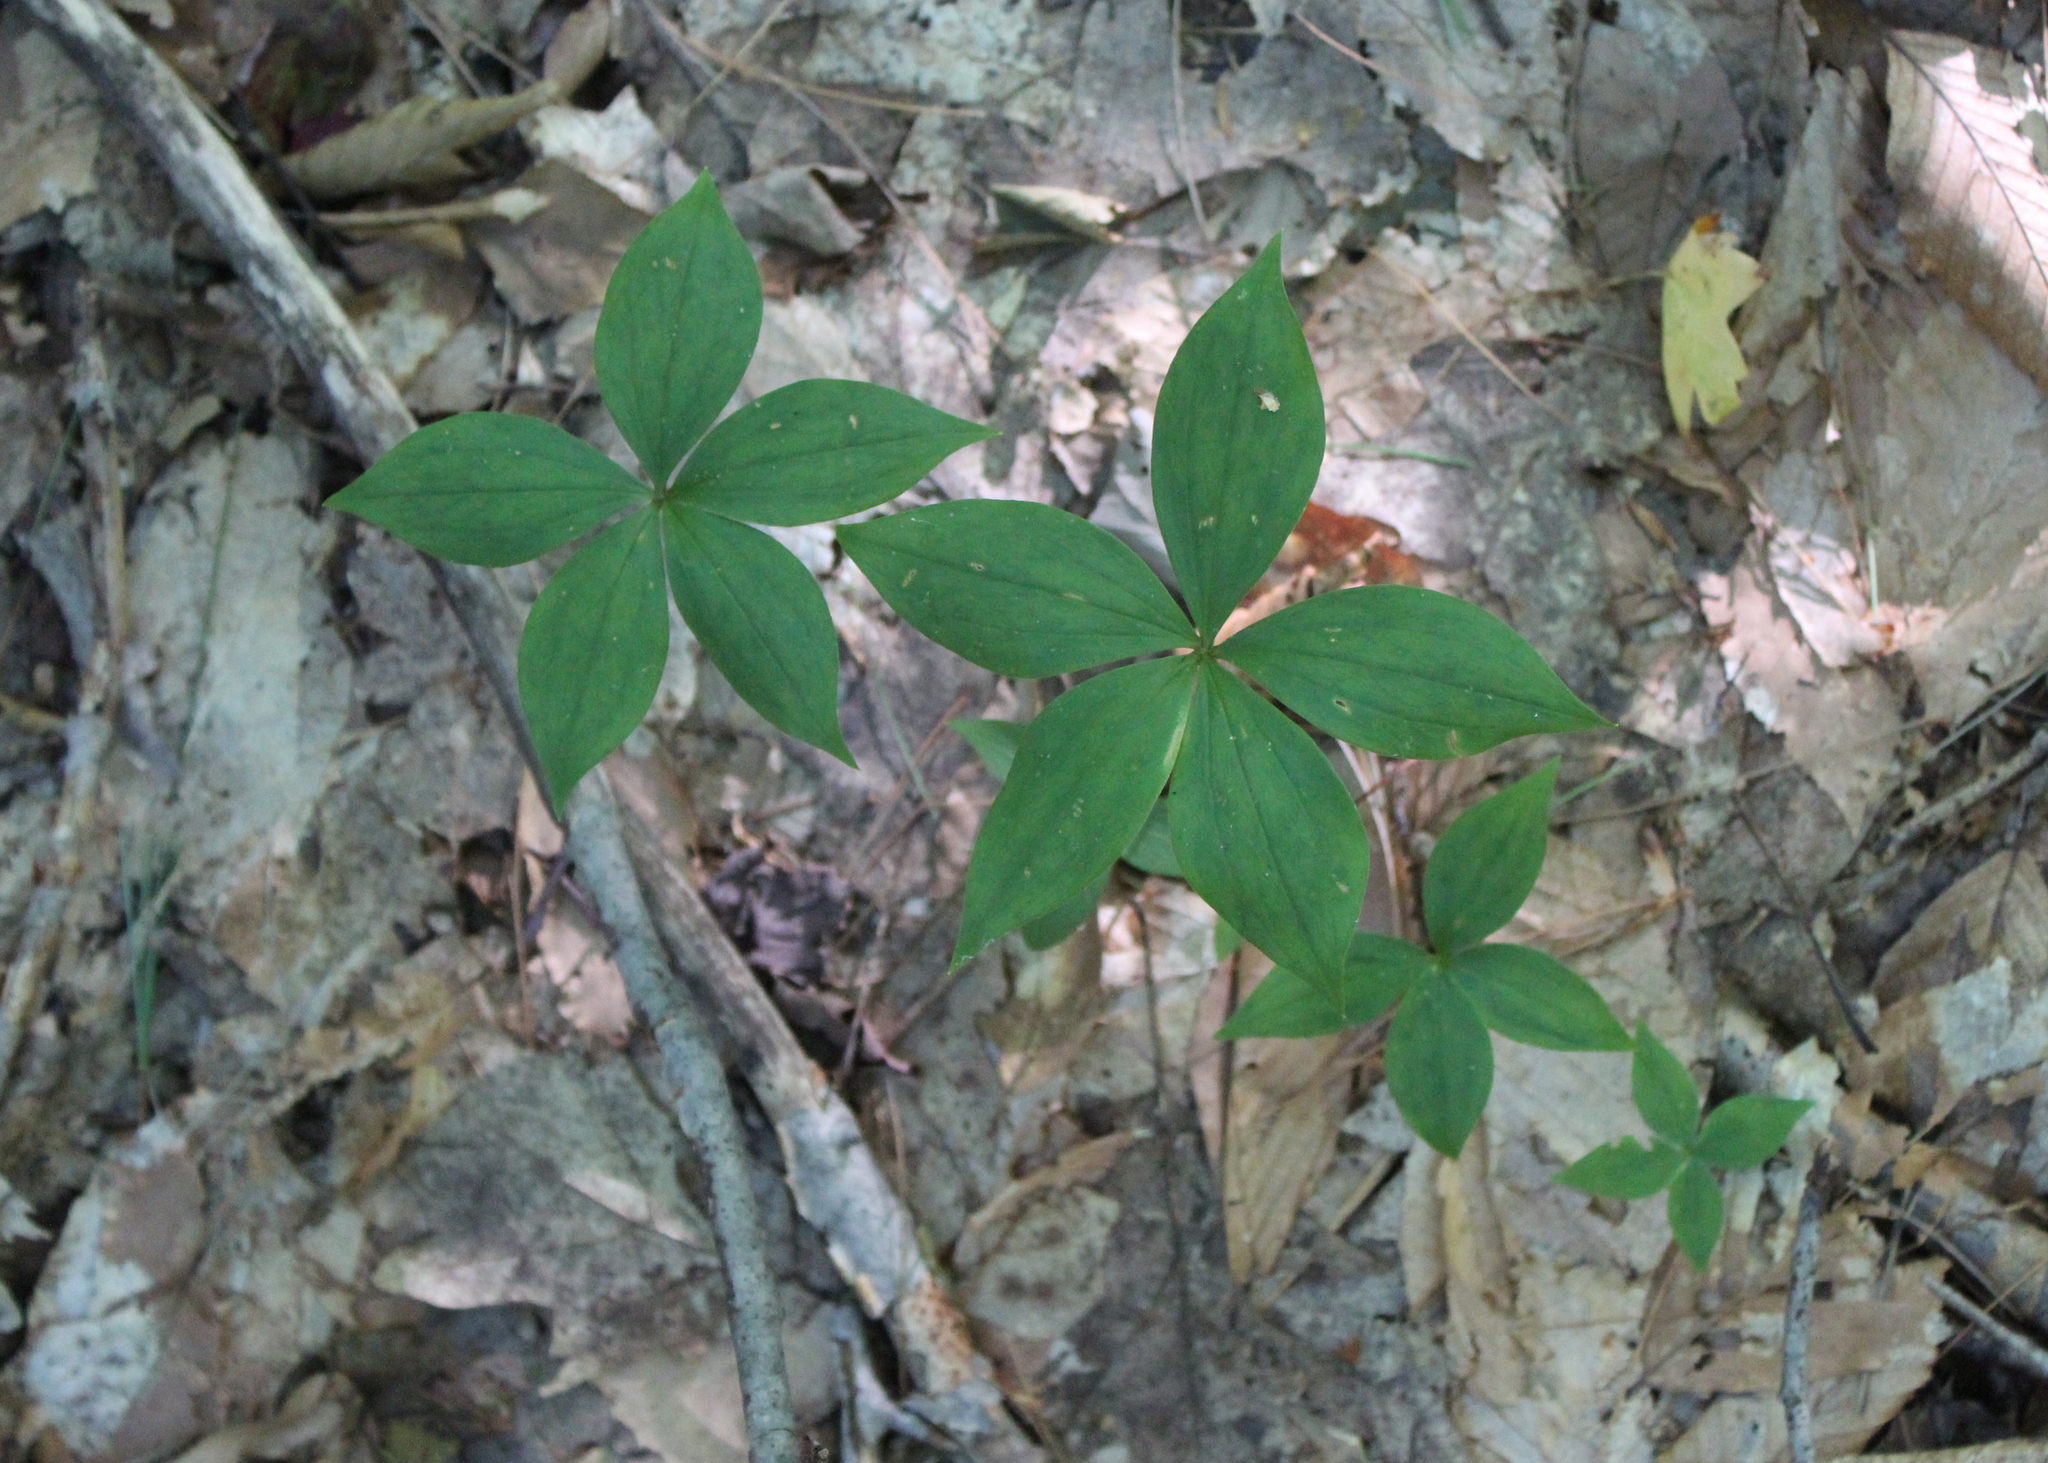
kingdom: Plantae
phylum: Tracheophyta
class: Liliopsida
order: Liliales
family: Liliaceae
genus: Medeola
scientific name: Medeola virginiana
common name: Indian cucumber-root
